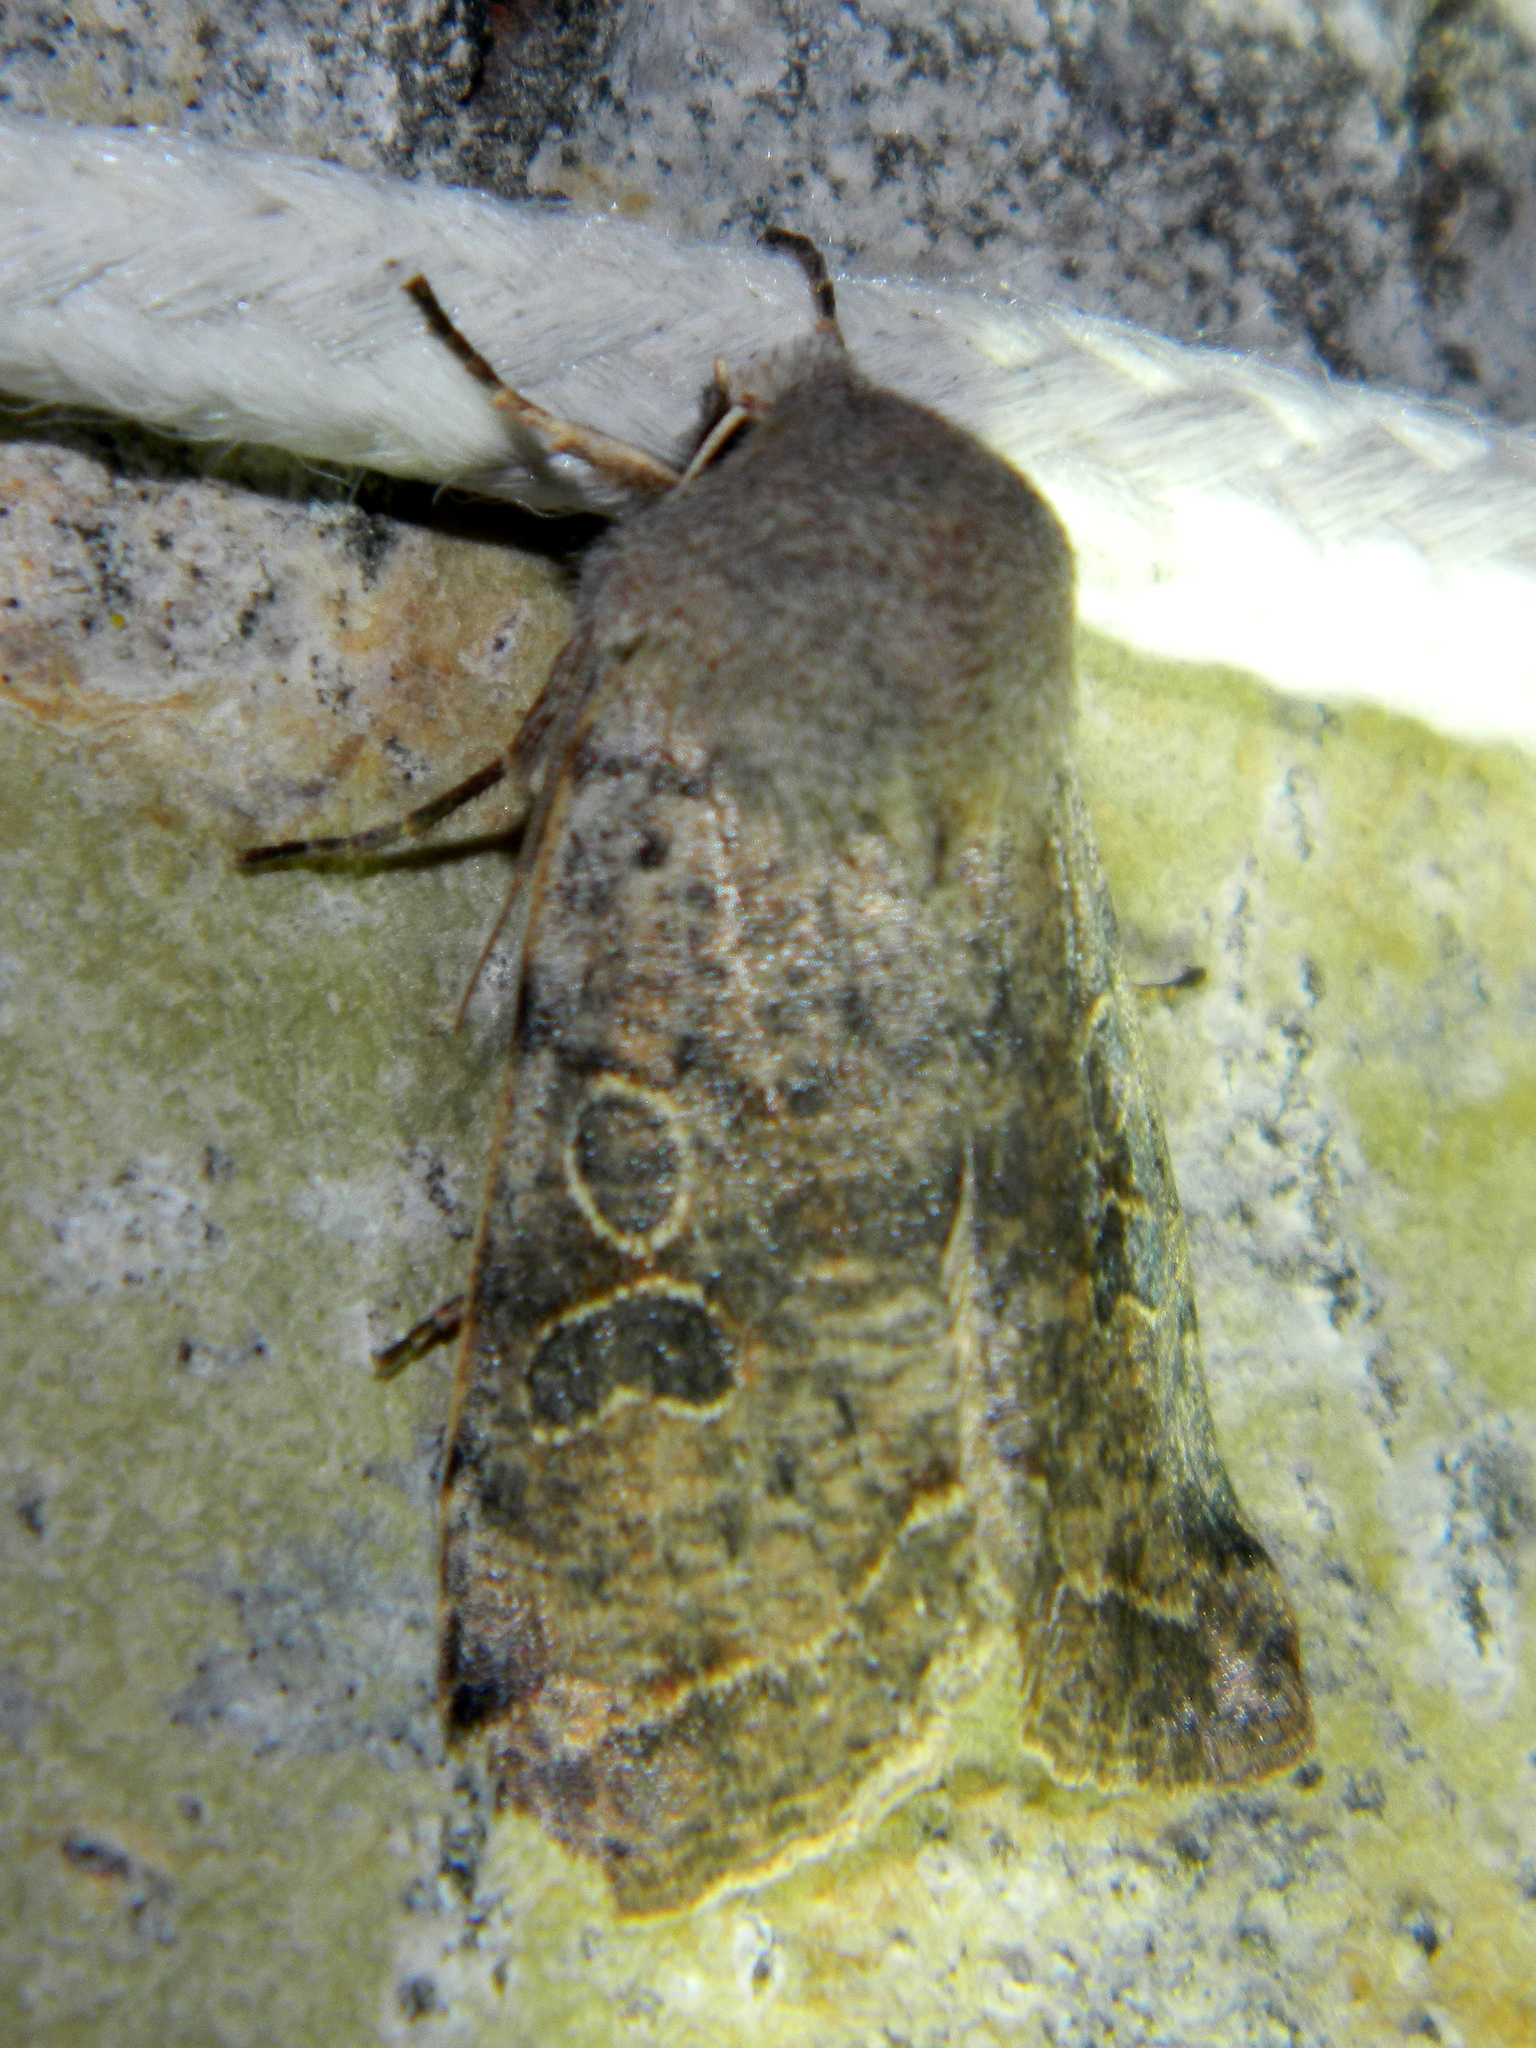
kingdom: Animalia
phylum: Arthropoda
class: Insecta
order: Lepidoptera
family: Noctuidae
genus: Orthosia
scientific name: Orthosia hibisci
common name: Green fruitworm
